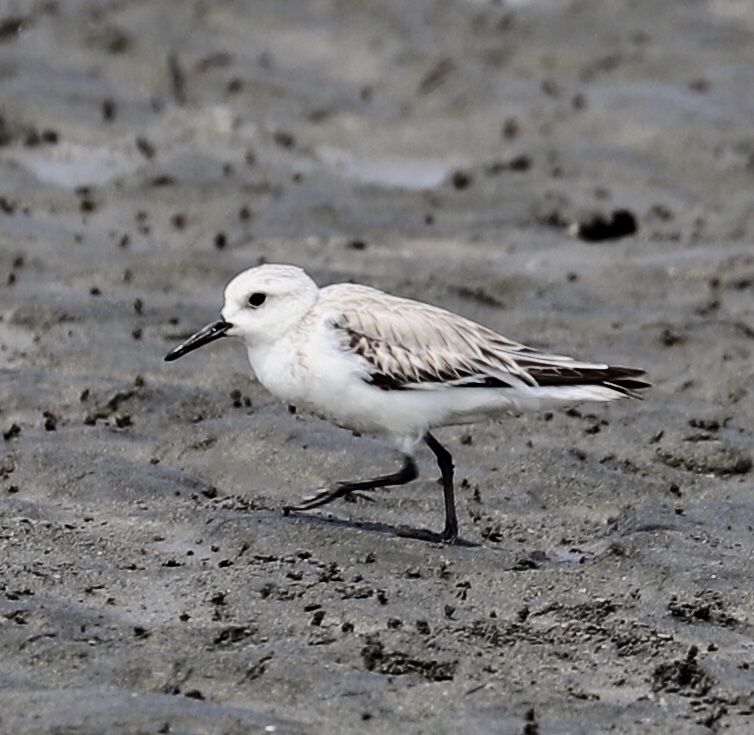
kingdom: Animalia
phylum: Chordata
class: Aves
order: Charadriiformes
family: Scolopacidae
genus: Calidris
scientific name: Calidris alba
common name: Sanderling
